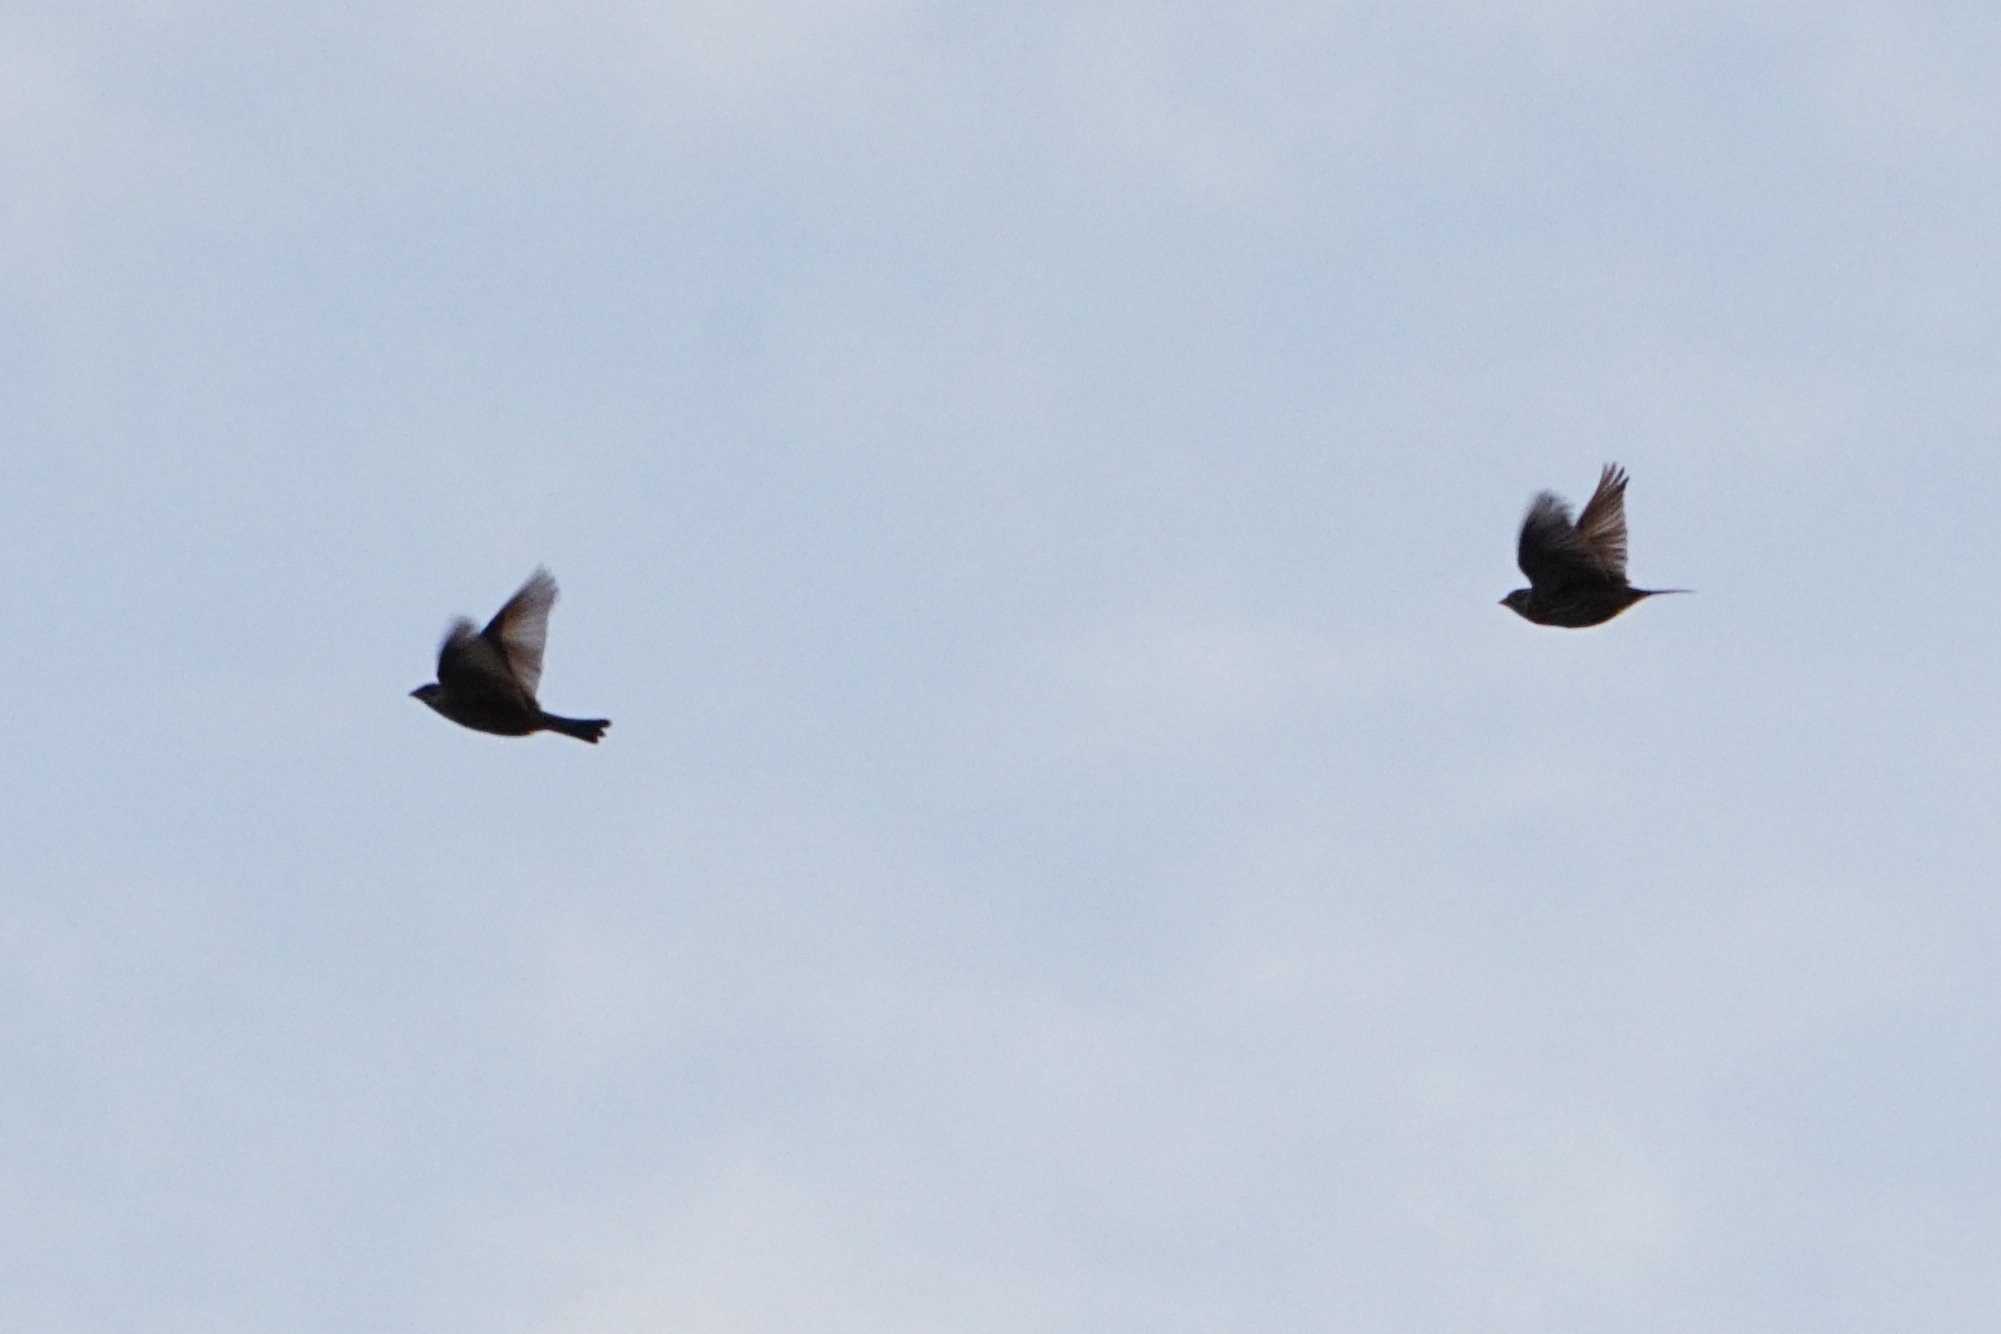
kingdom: Animalia
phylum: Chordata
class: Aves
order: Passeriformes
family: Emberizidae
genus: Emberiza
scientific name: Emberiza calandra
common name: Corn bunting
